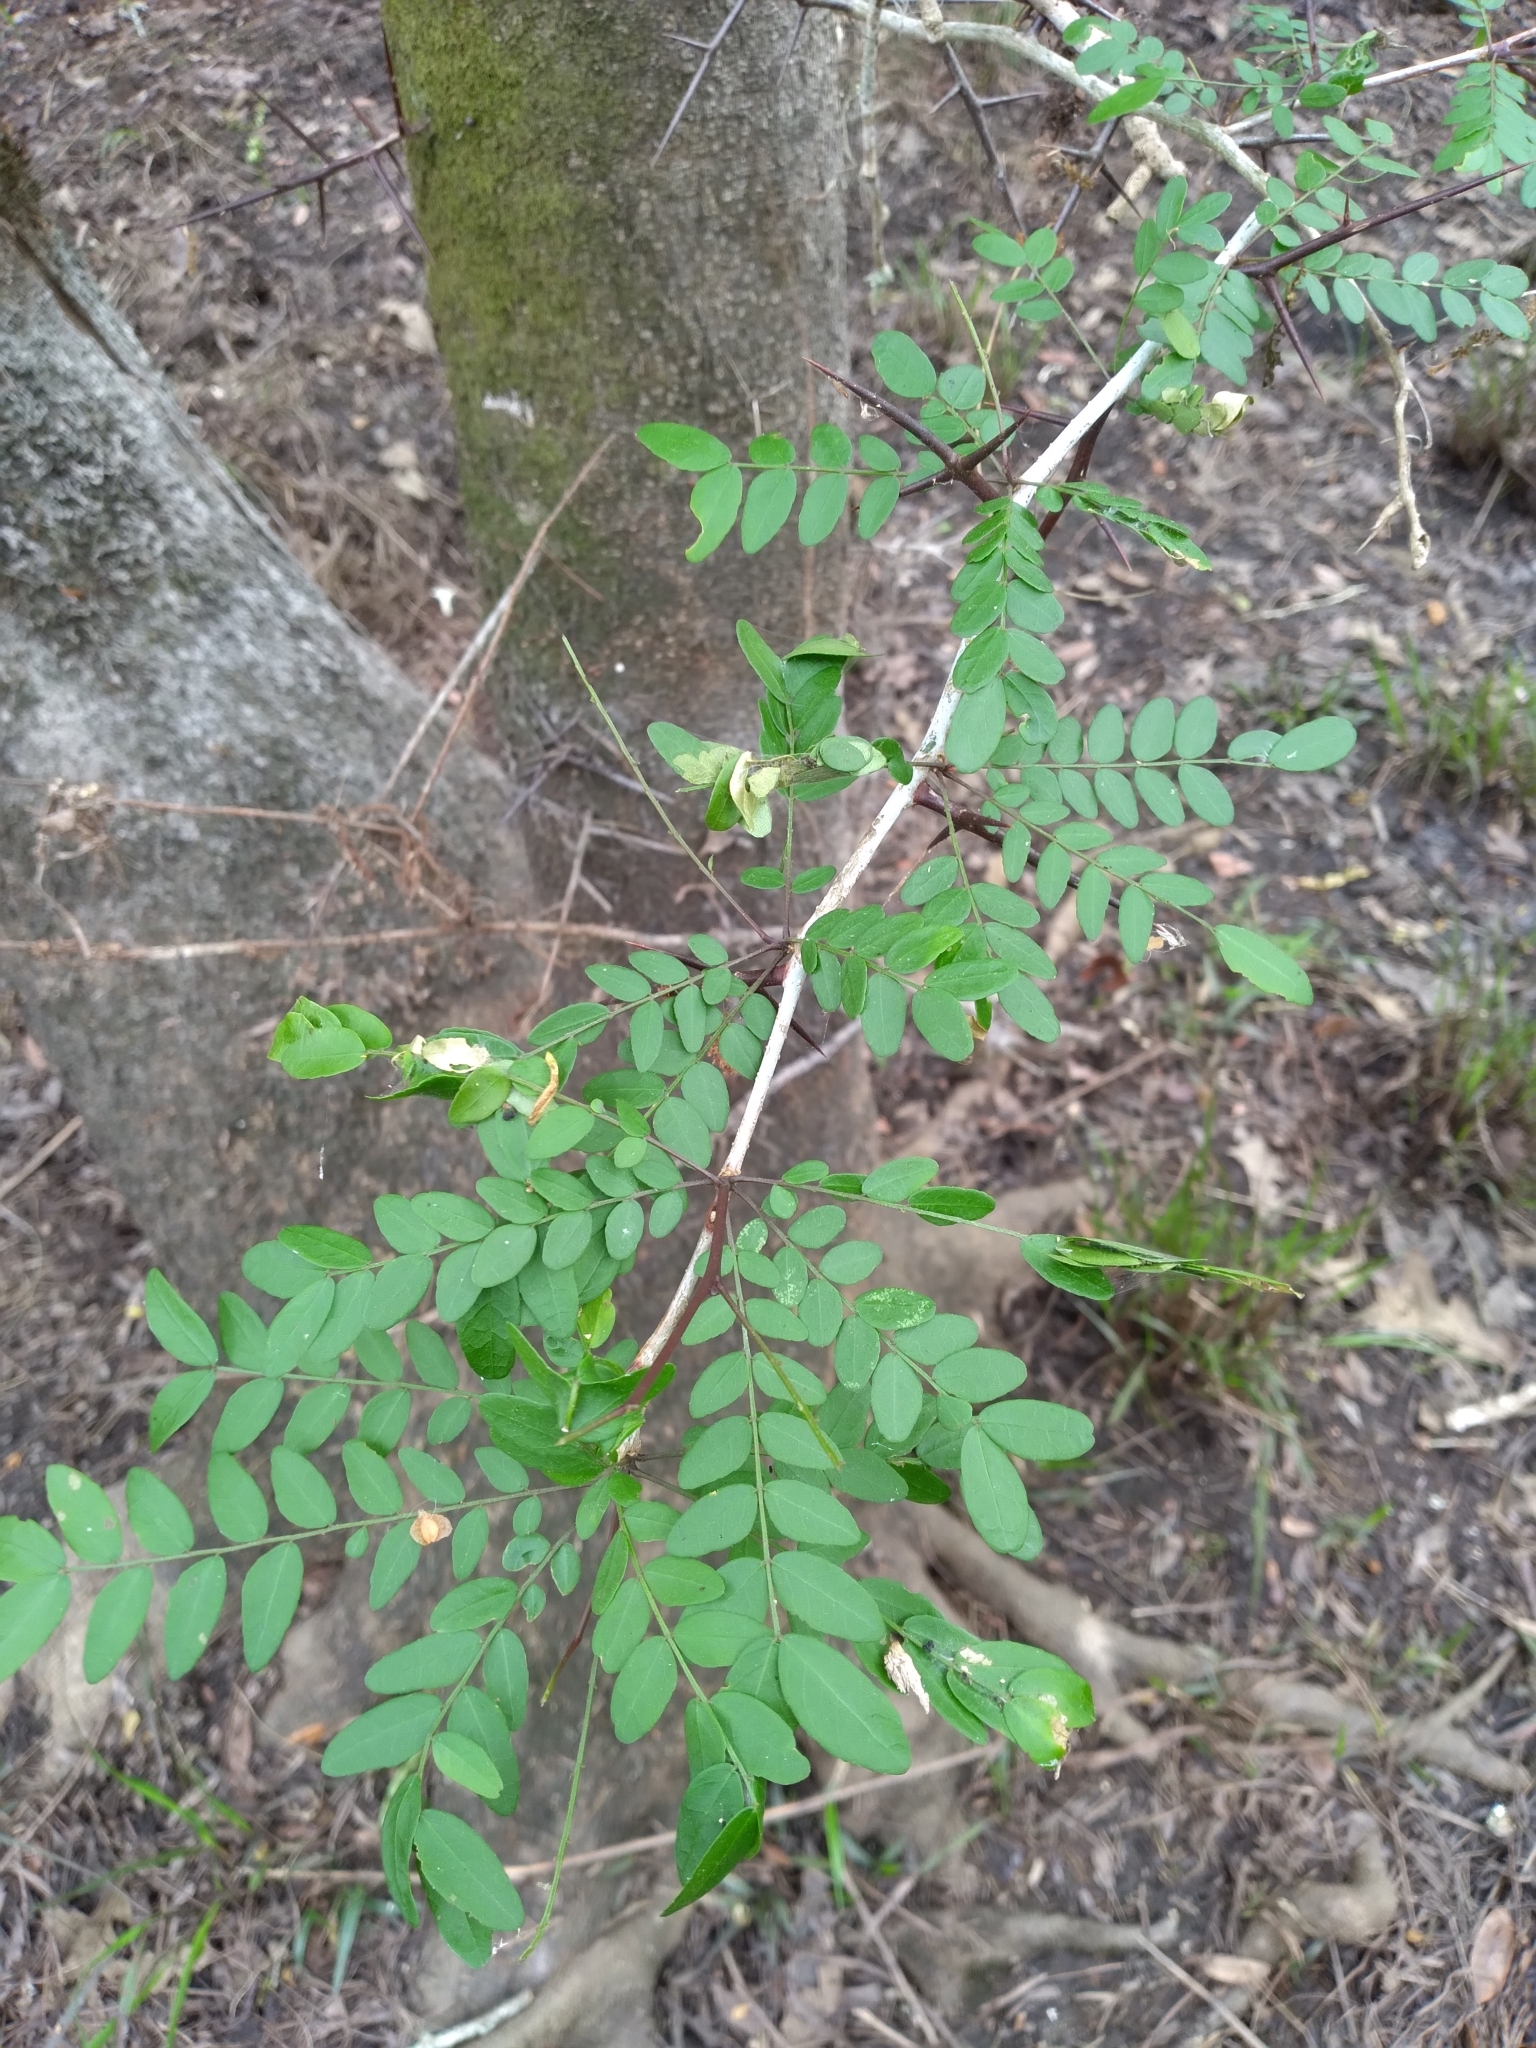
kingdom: Plantae
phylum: Tracheophyta
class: Magnoliopsida
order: Fabales
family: Fabaceae
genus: Gleditsia
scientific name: Gleditsia aquatica
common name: Swamp-locust
